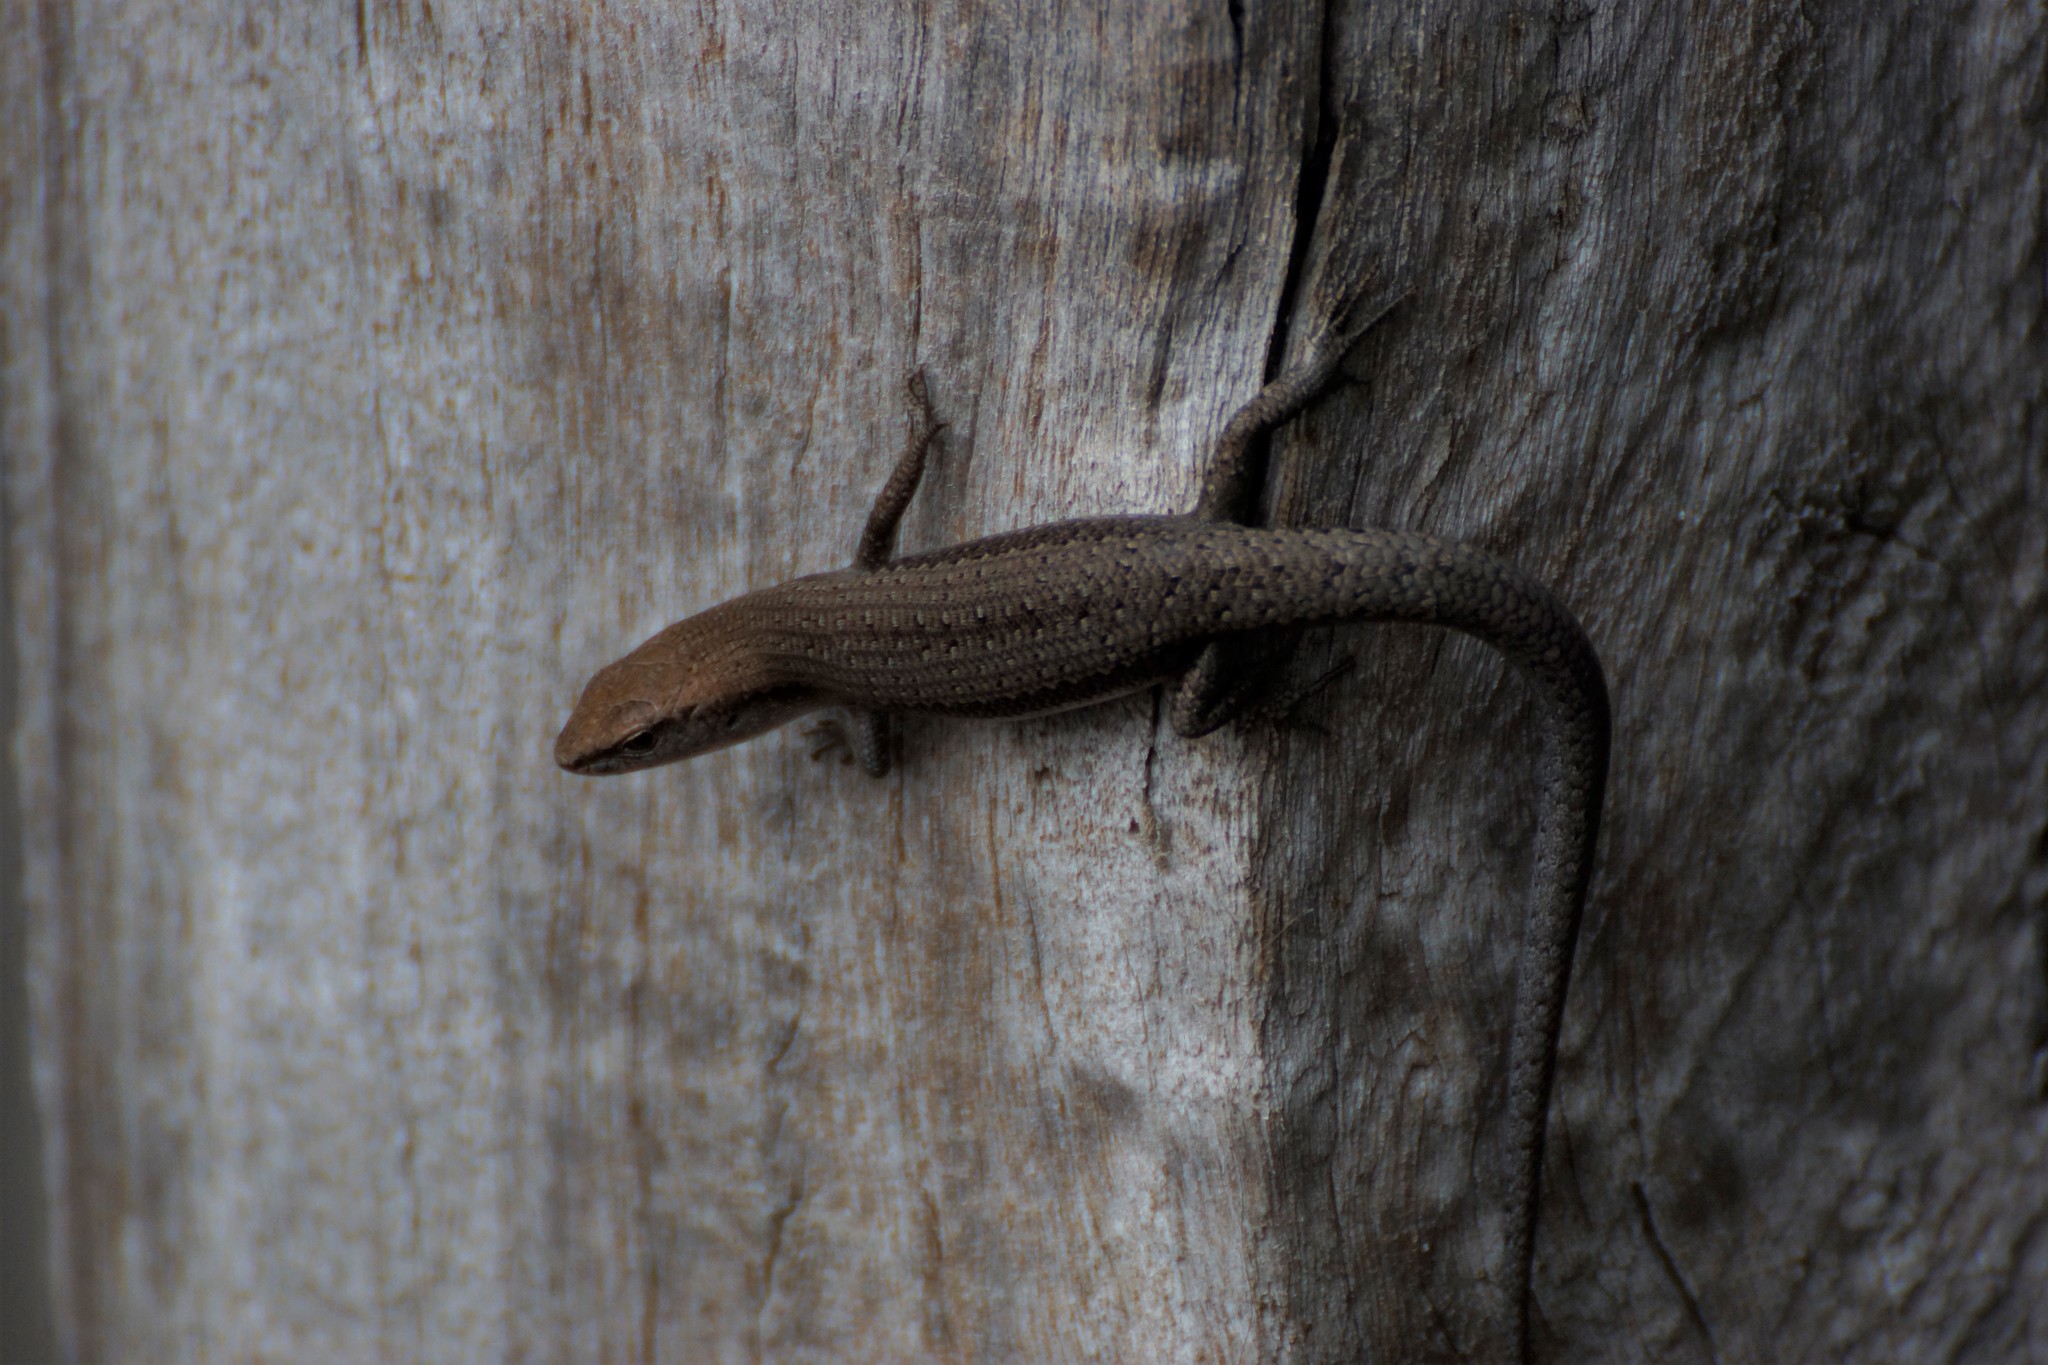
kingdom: Animalia
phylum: Chordata
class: Squamata
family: Scincidae
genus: Lampropholis
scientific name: Lampropholis guichenoti
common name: Garden skink
